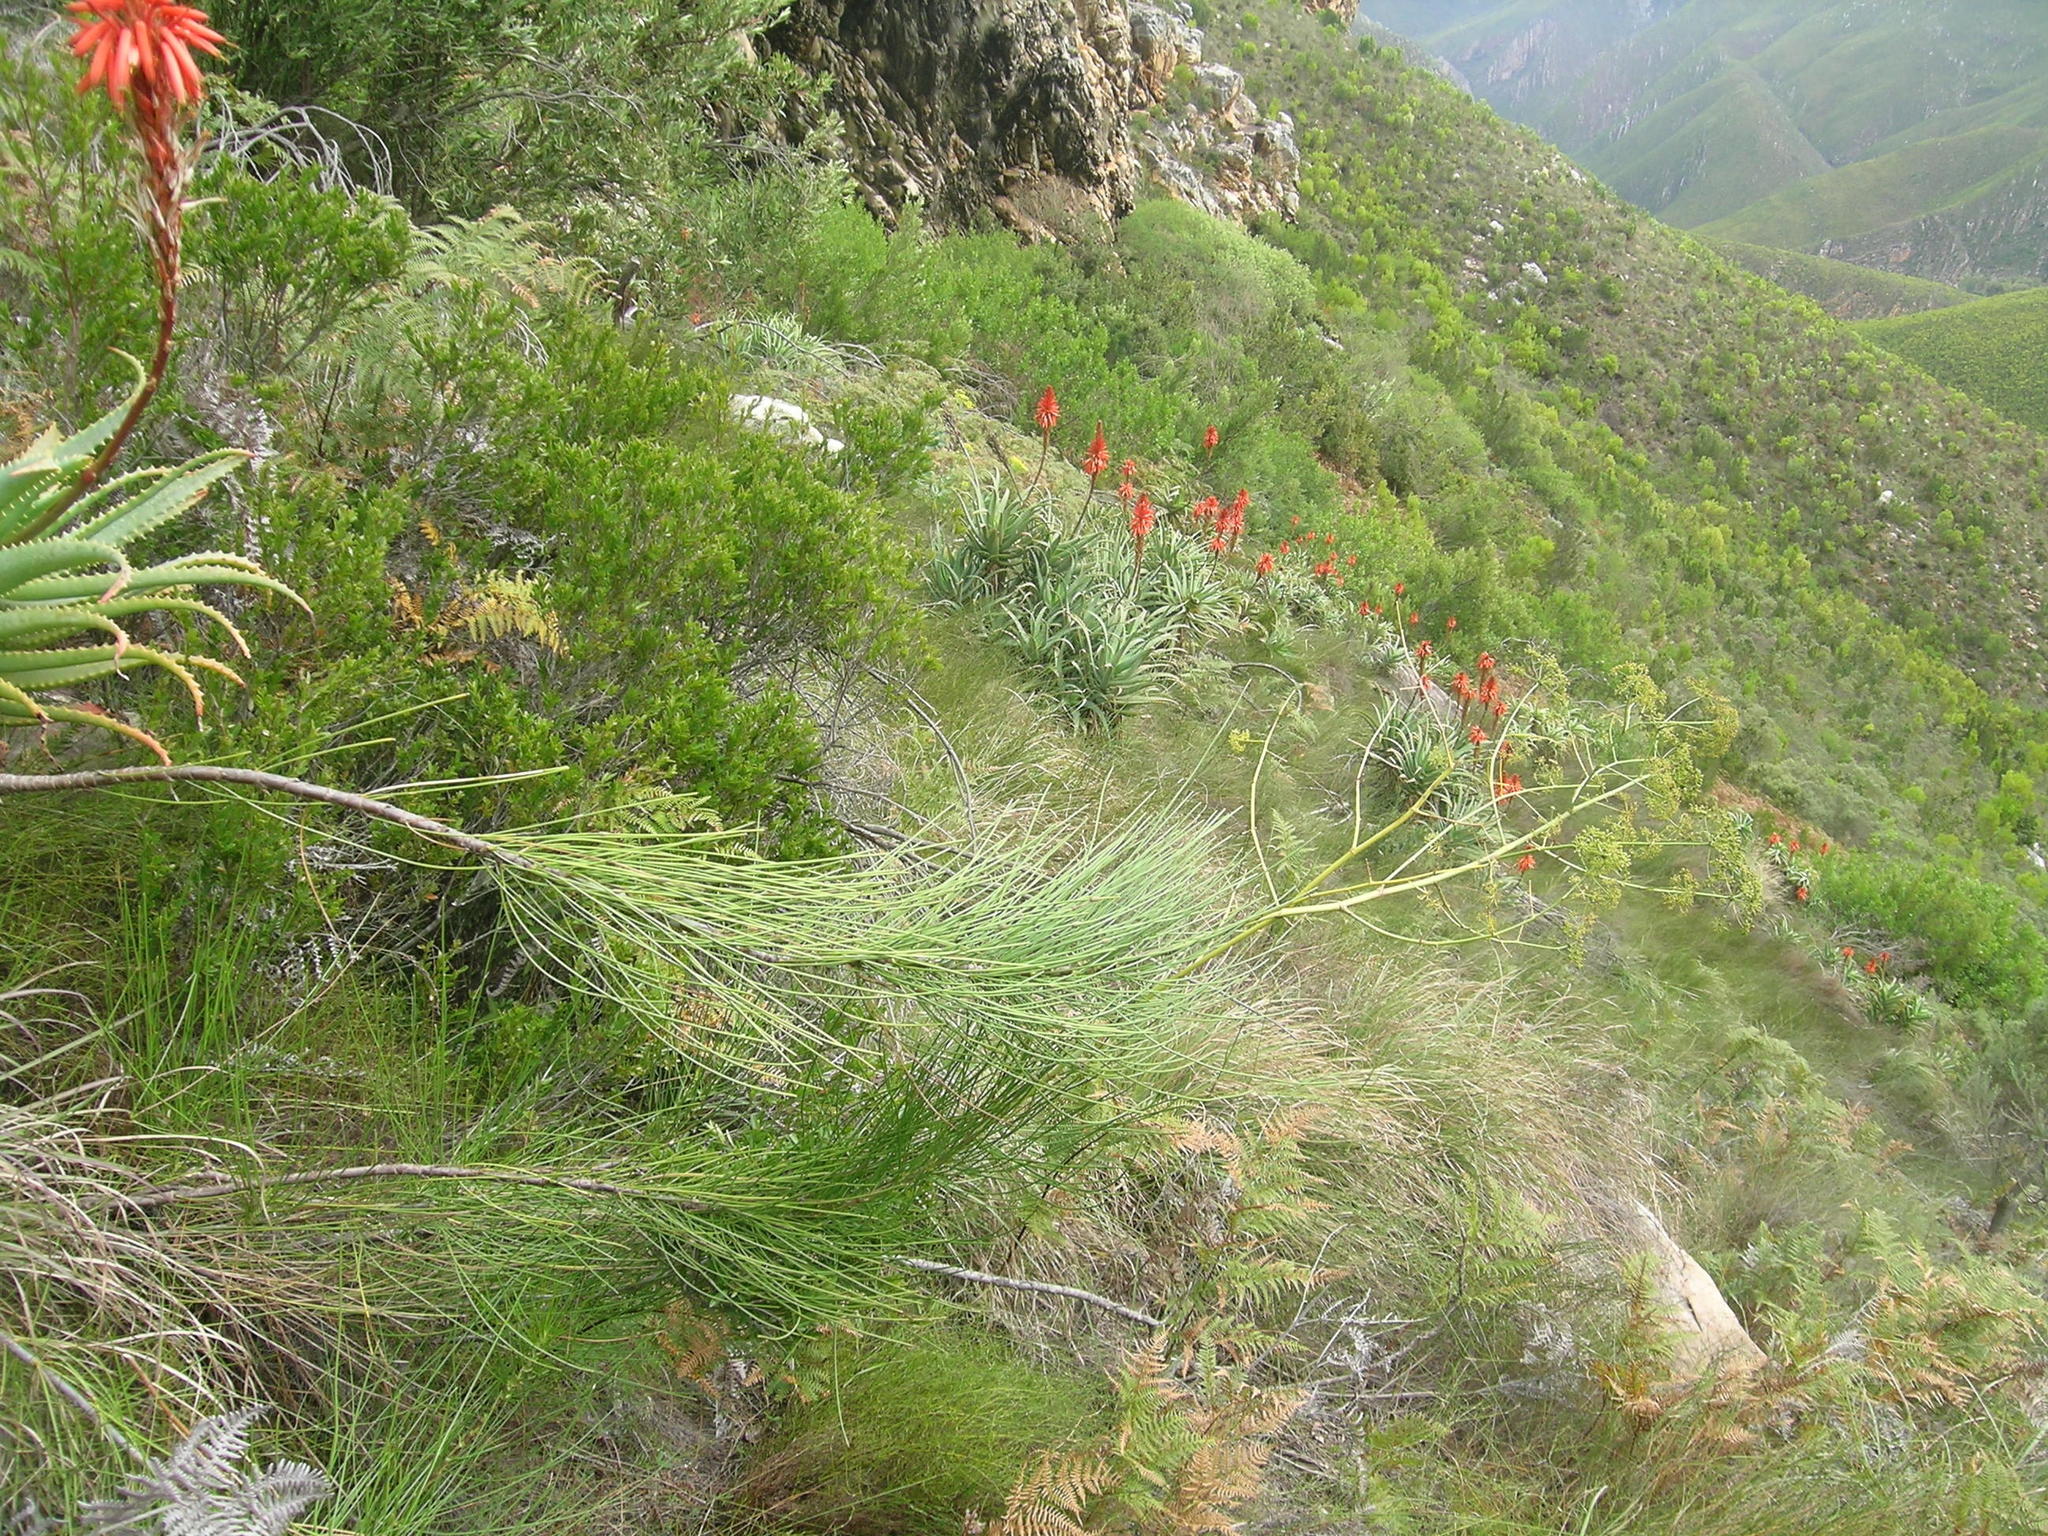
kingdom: Plantae
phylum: Tracheophyta
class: Magnoliopsida
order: Apiales
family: Apiaceae
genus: Anginon
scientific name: Anginon difforme
